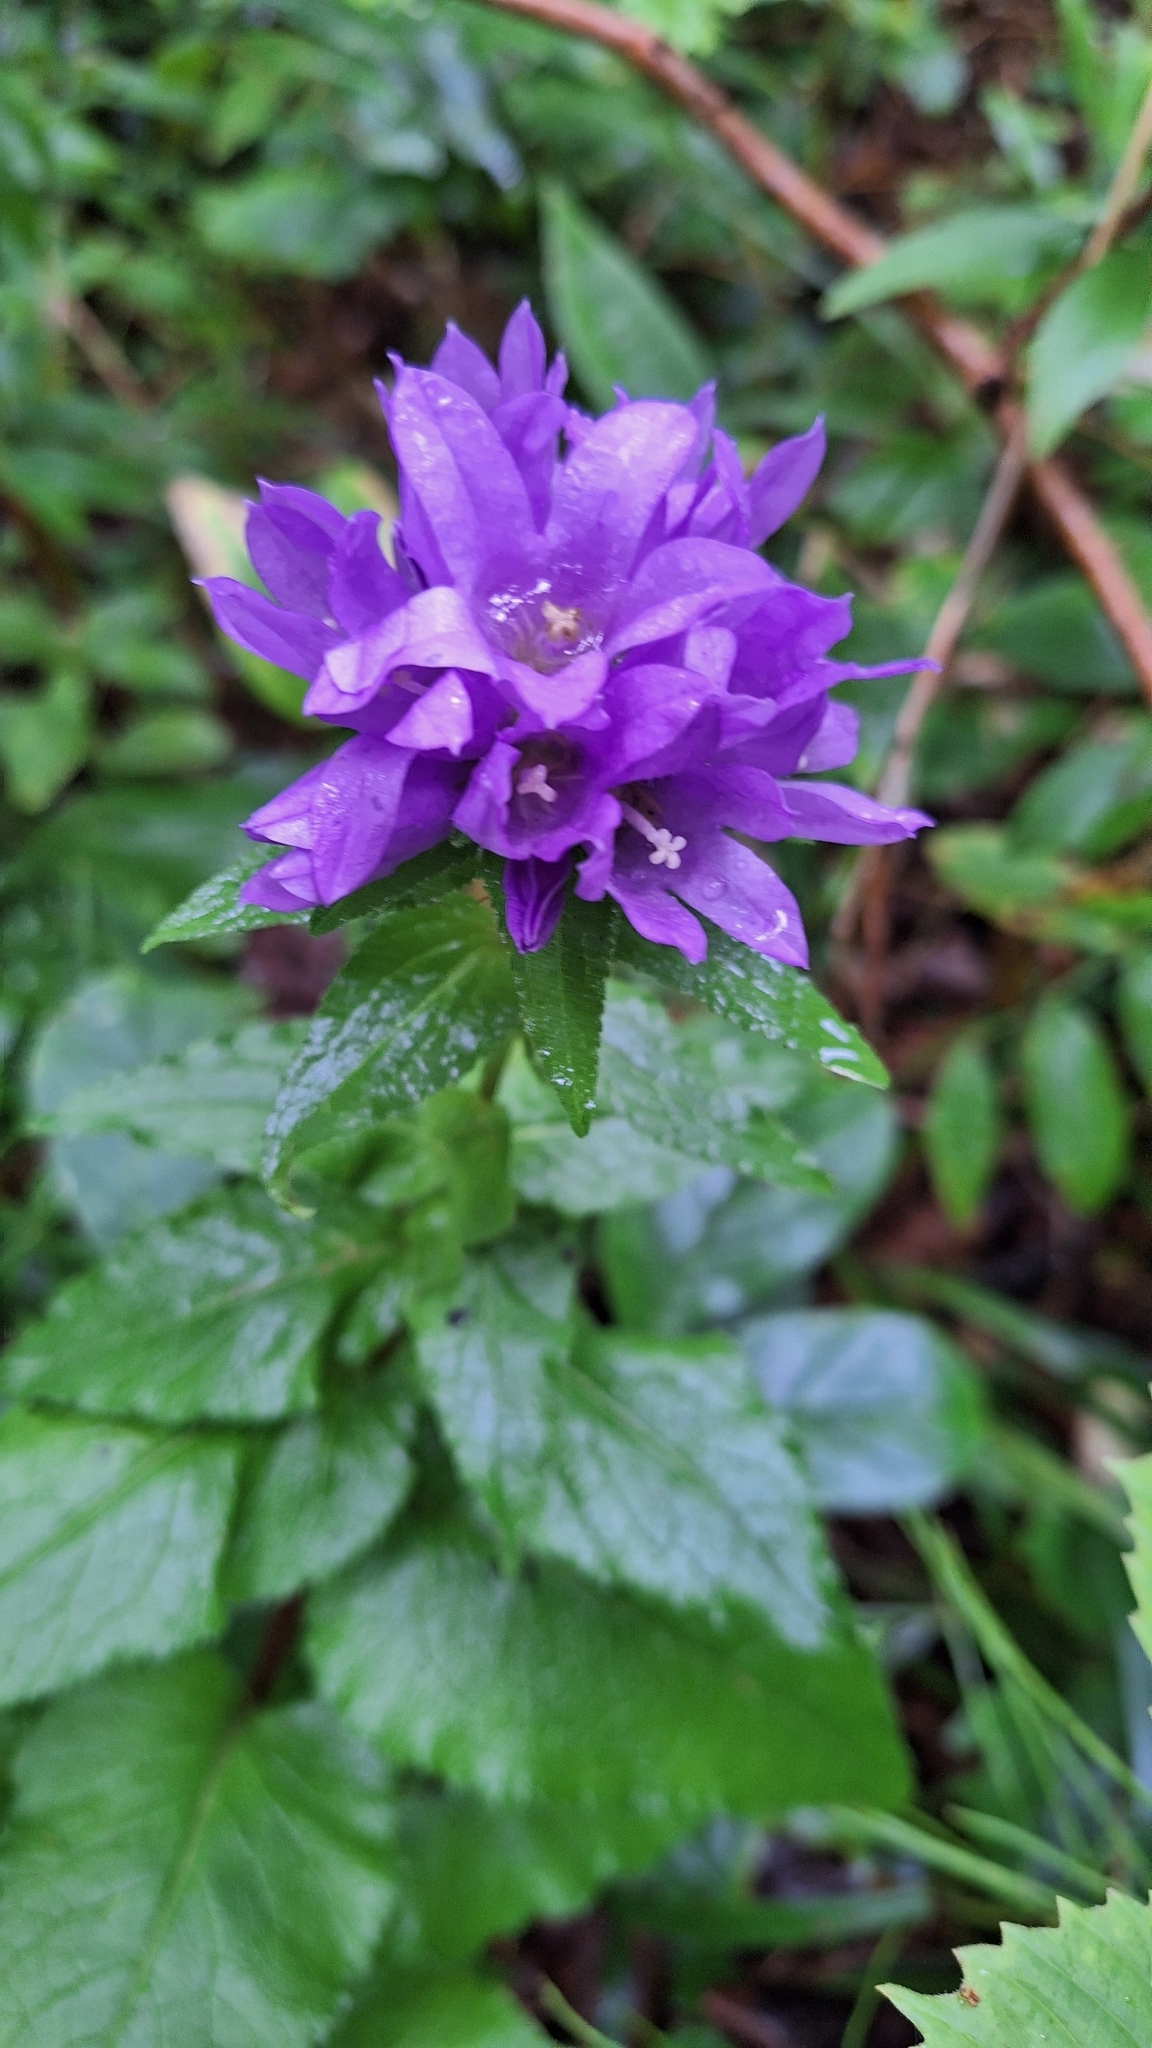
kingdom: Plantae
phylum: Tracheophyta
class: Magnoliopsida
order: Asterales
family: Campanulaceae
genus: Campanula
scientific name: Campanula glomerata
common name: Clustered bellflower
